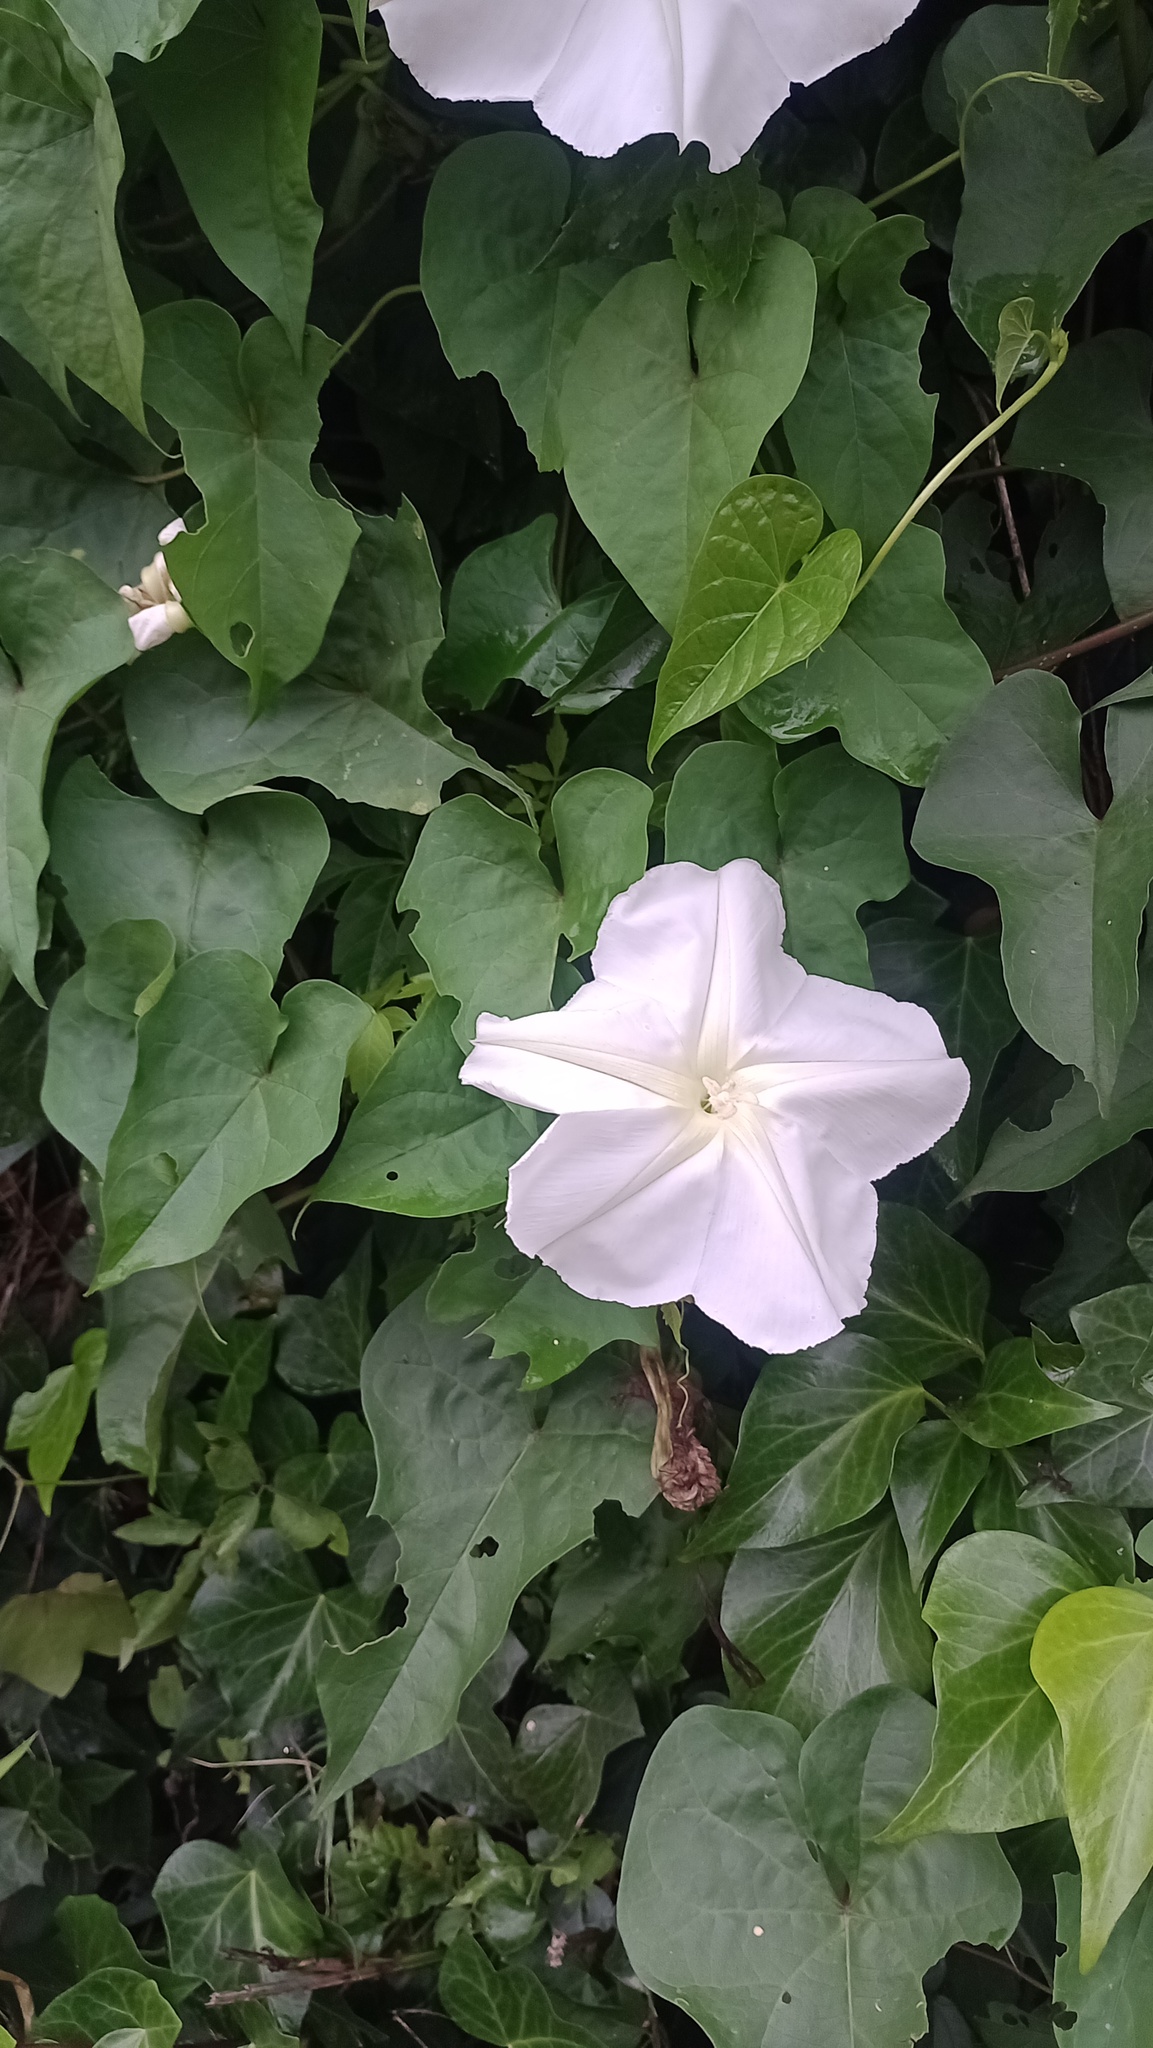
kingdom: Plantae
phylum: Tracheophyta
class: Magnoliopsida
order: Solanales
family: Convolvulaceae
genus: Ipomoea
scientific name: Ipomoea alba
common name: Moonflower
